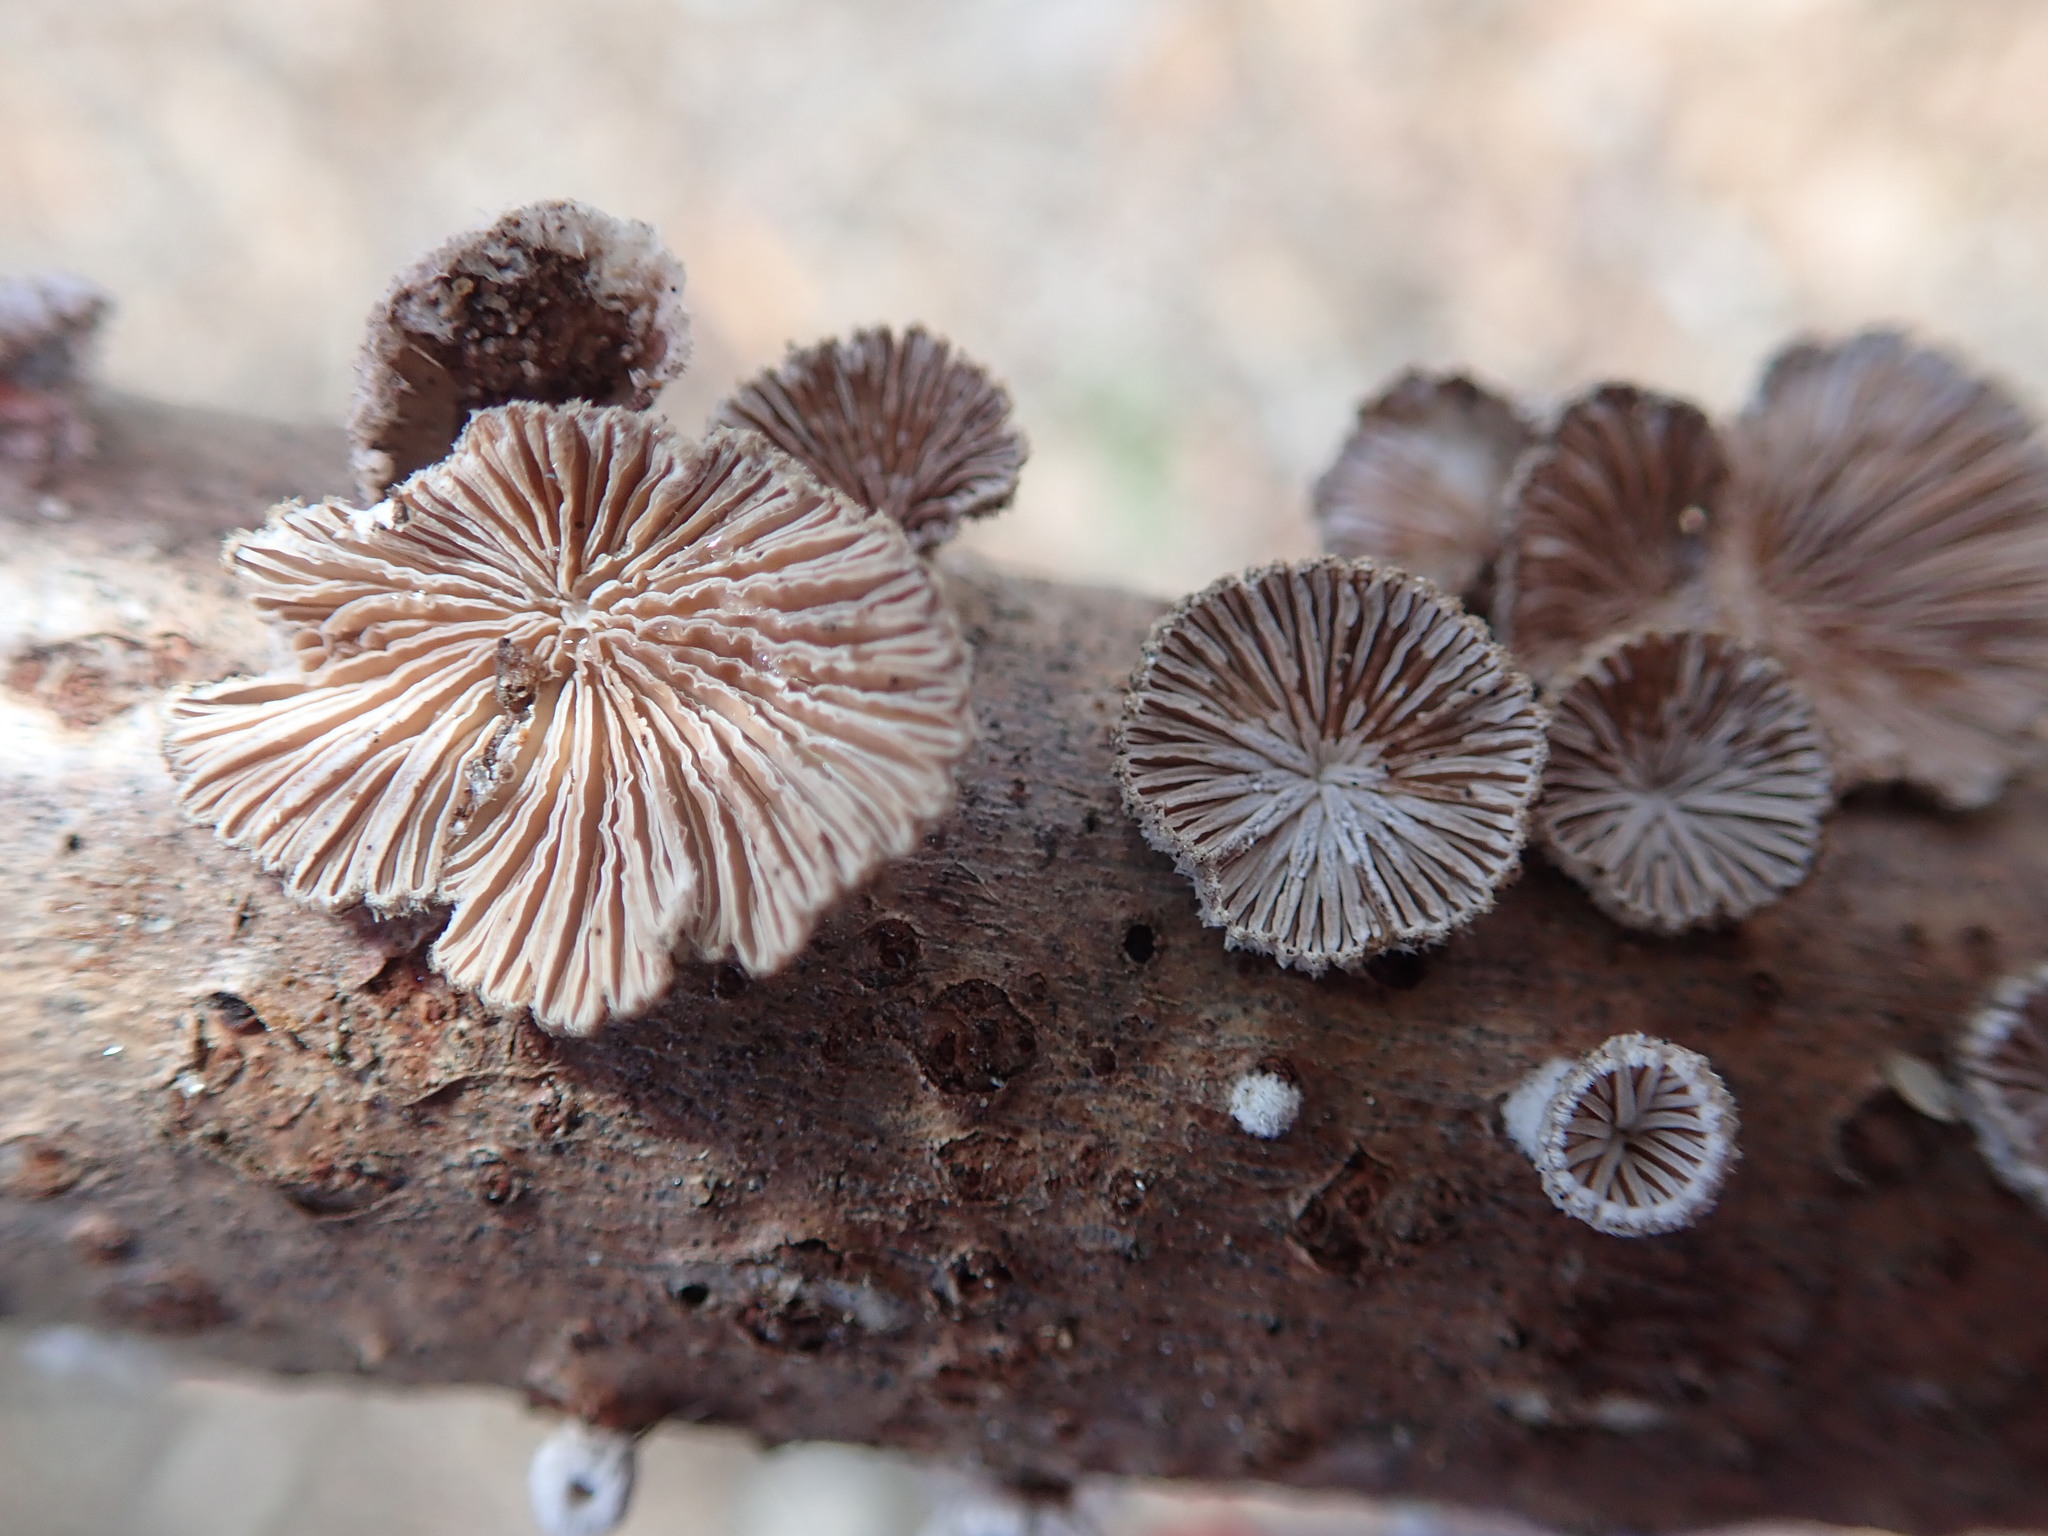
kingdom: Fungi
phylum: Basidiomycota
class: Agaricomycetes
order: Agaricales
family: Schizophyllaceae
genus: Schizophyllum
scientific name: Schizophyllum commune
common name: Common porecrust
